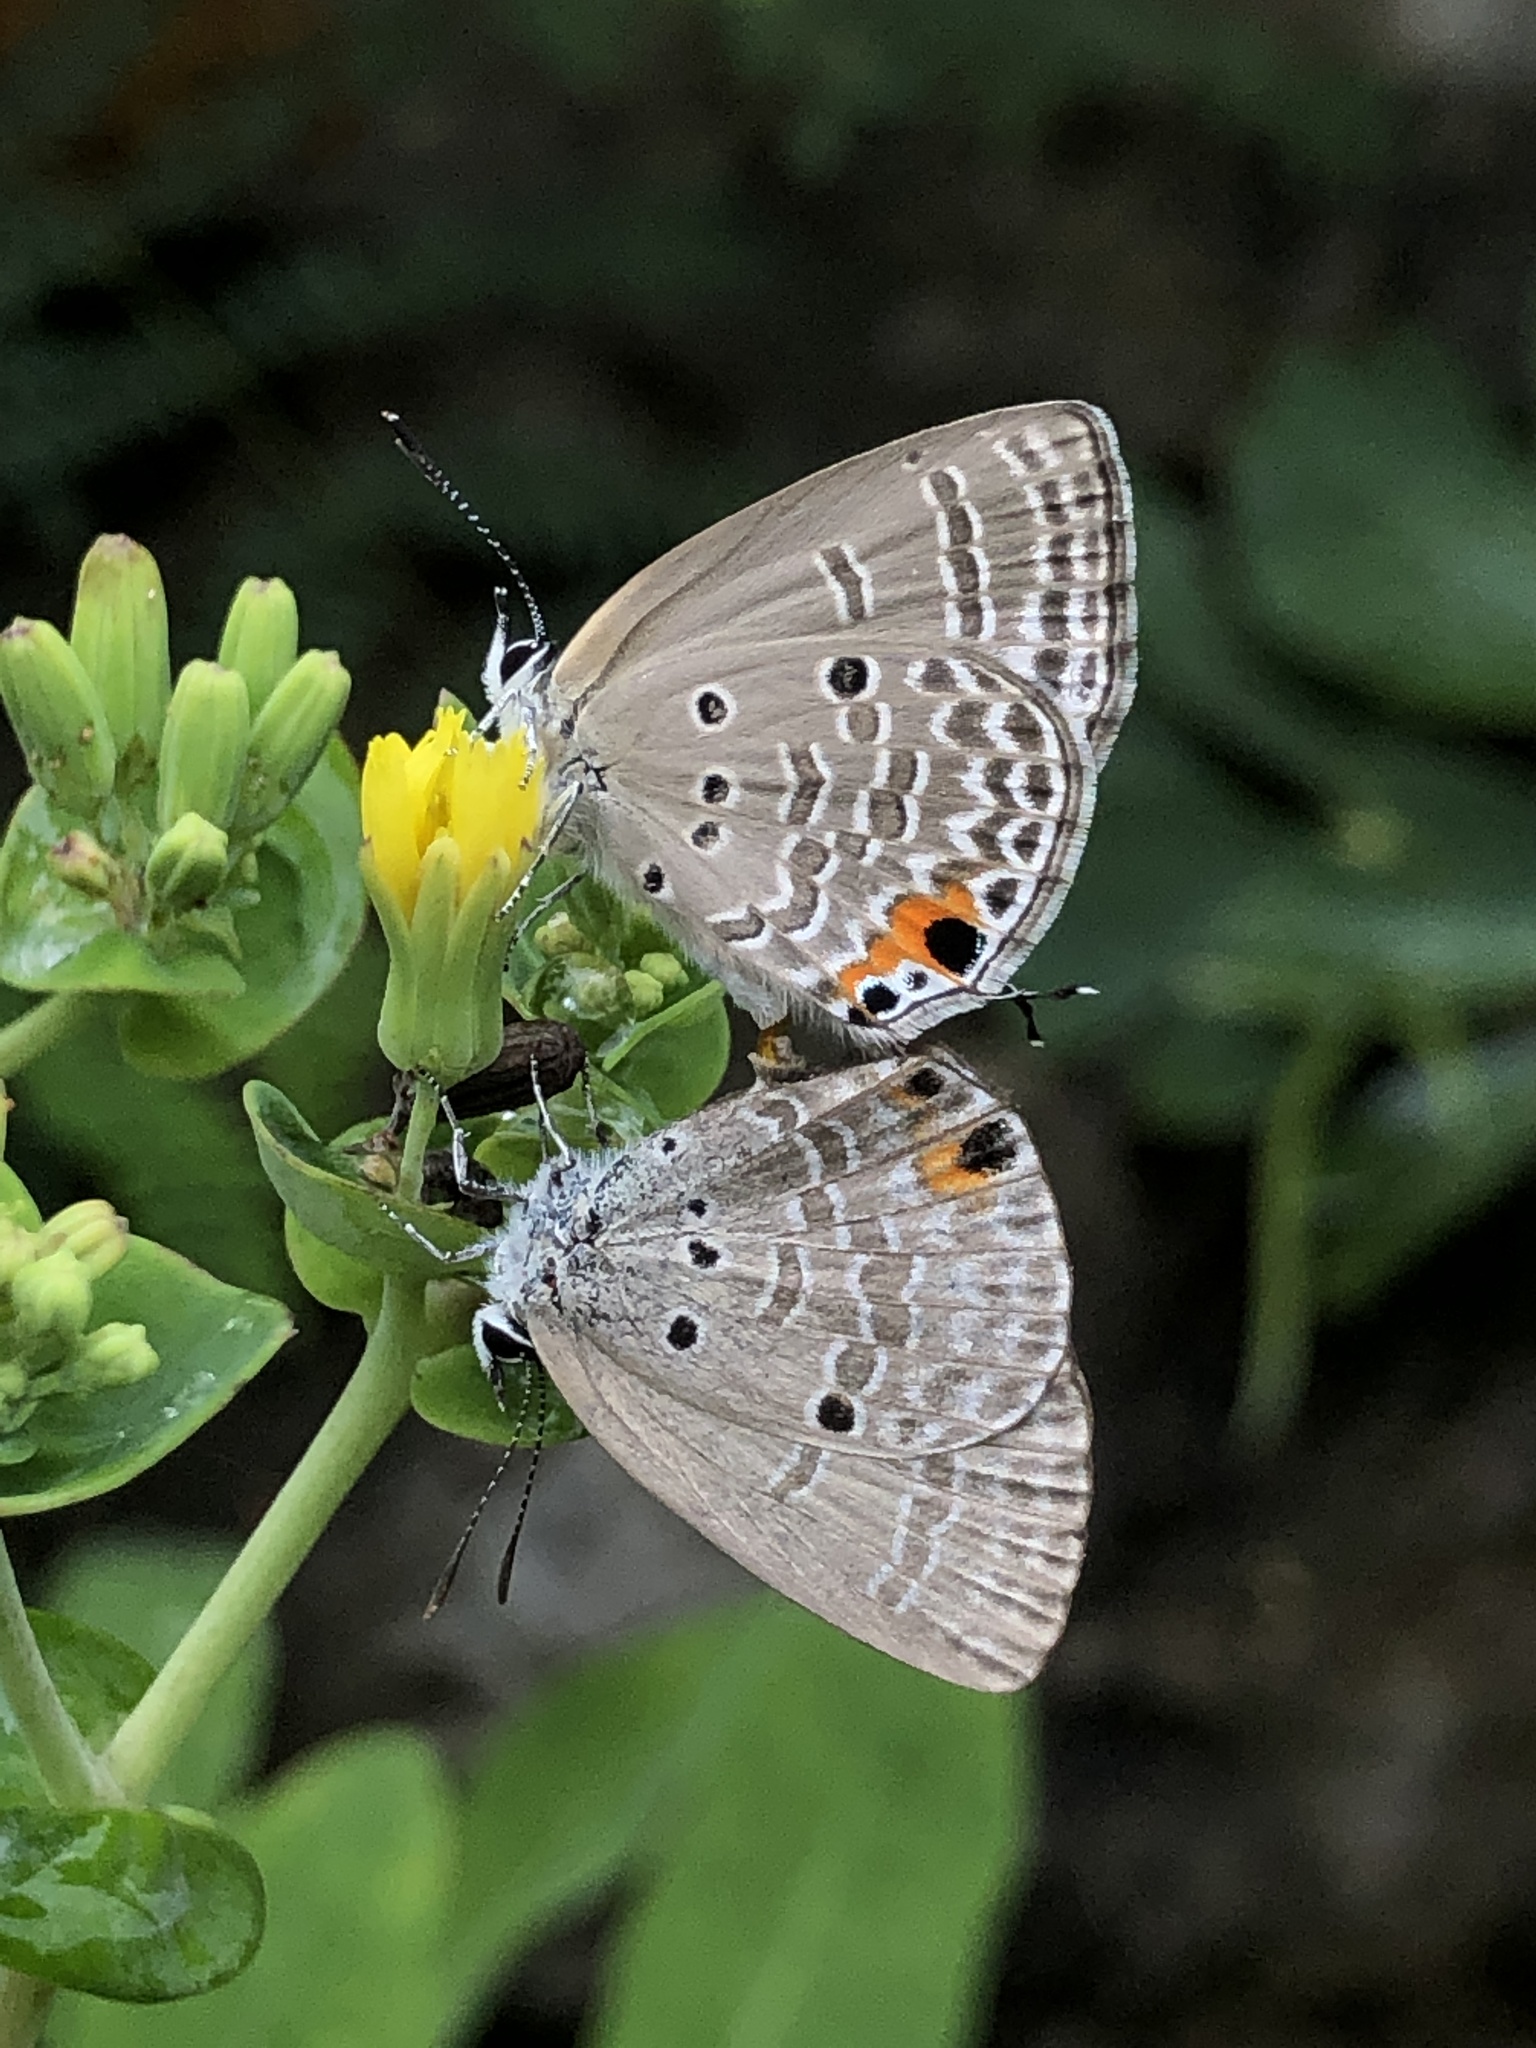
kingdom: Animalia
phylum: Arthropoda
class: Insecta
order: Lepidoptera
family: Lycaenidae
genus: Luthrodes
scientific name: Luthrodes pandava
